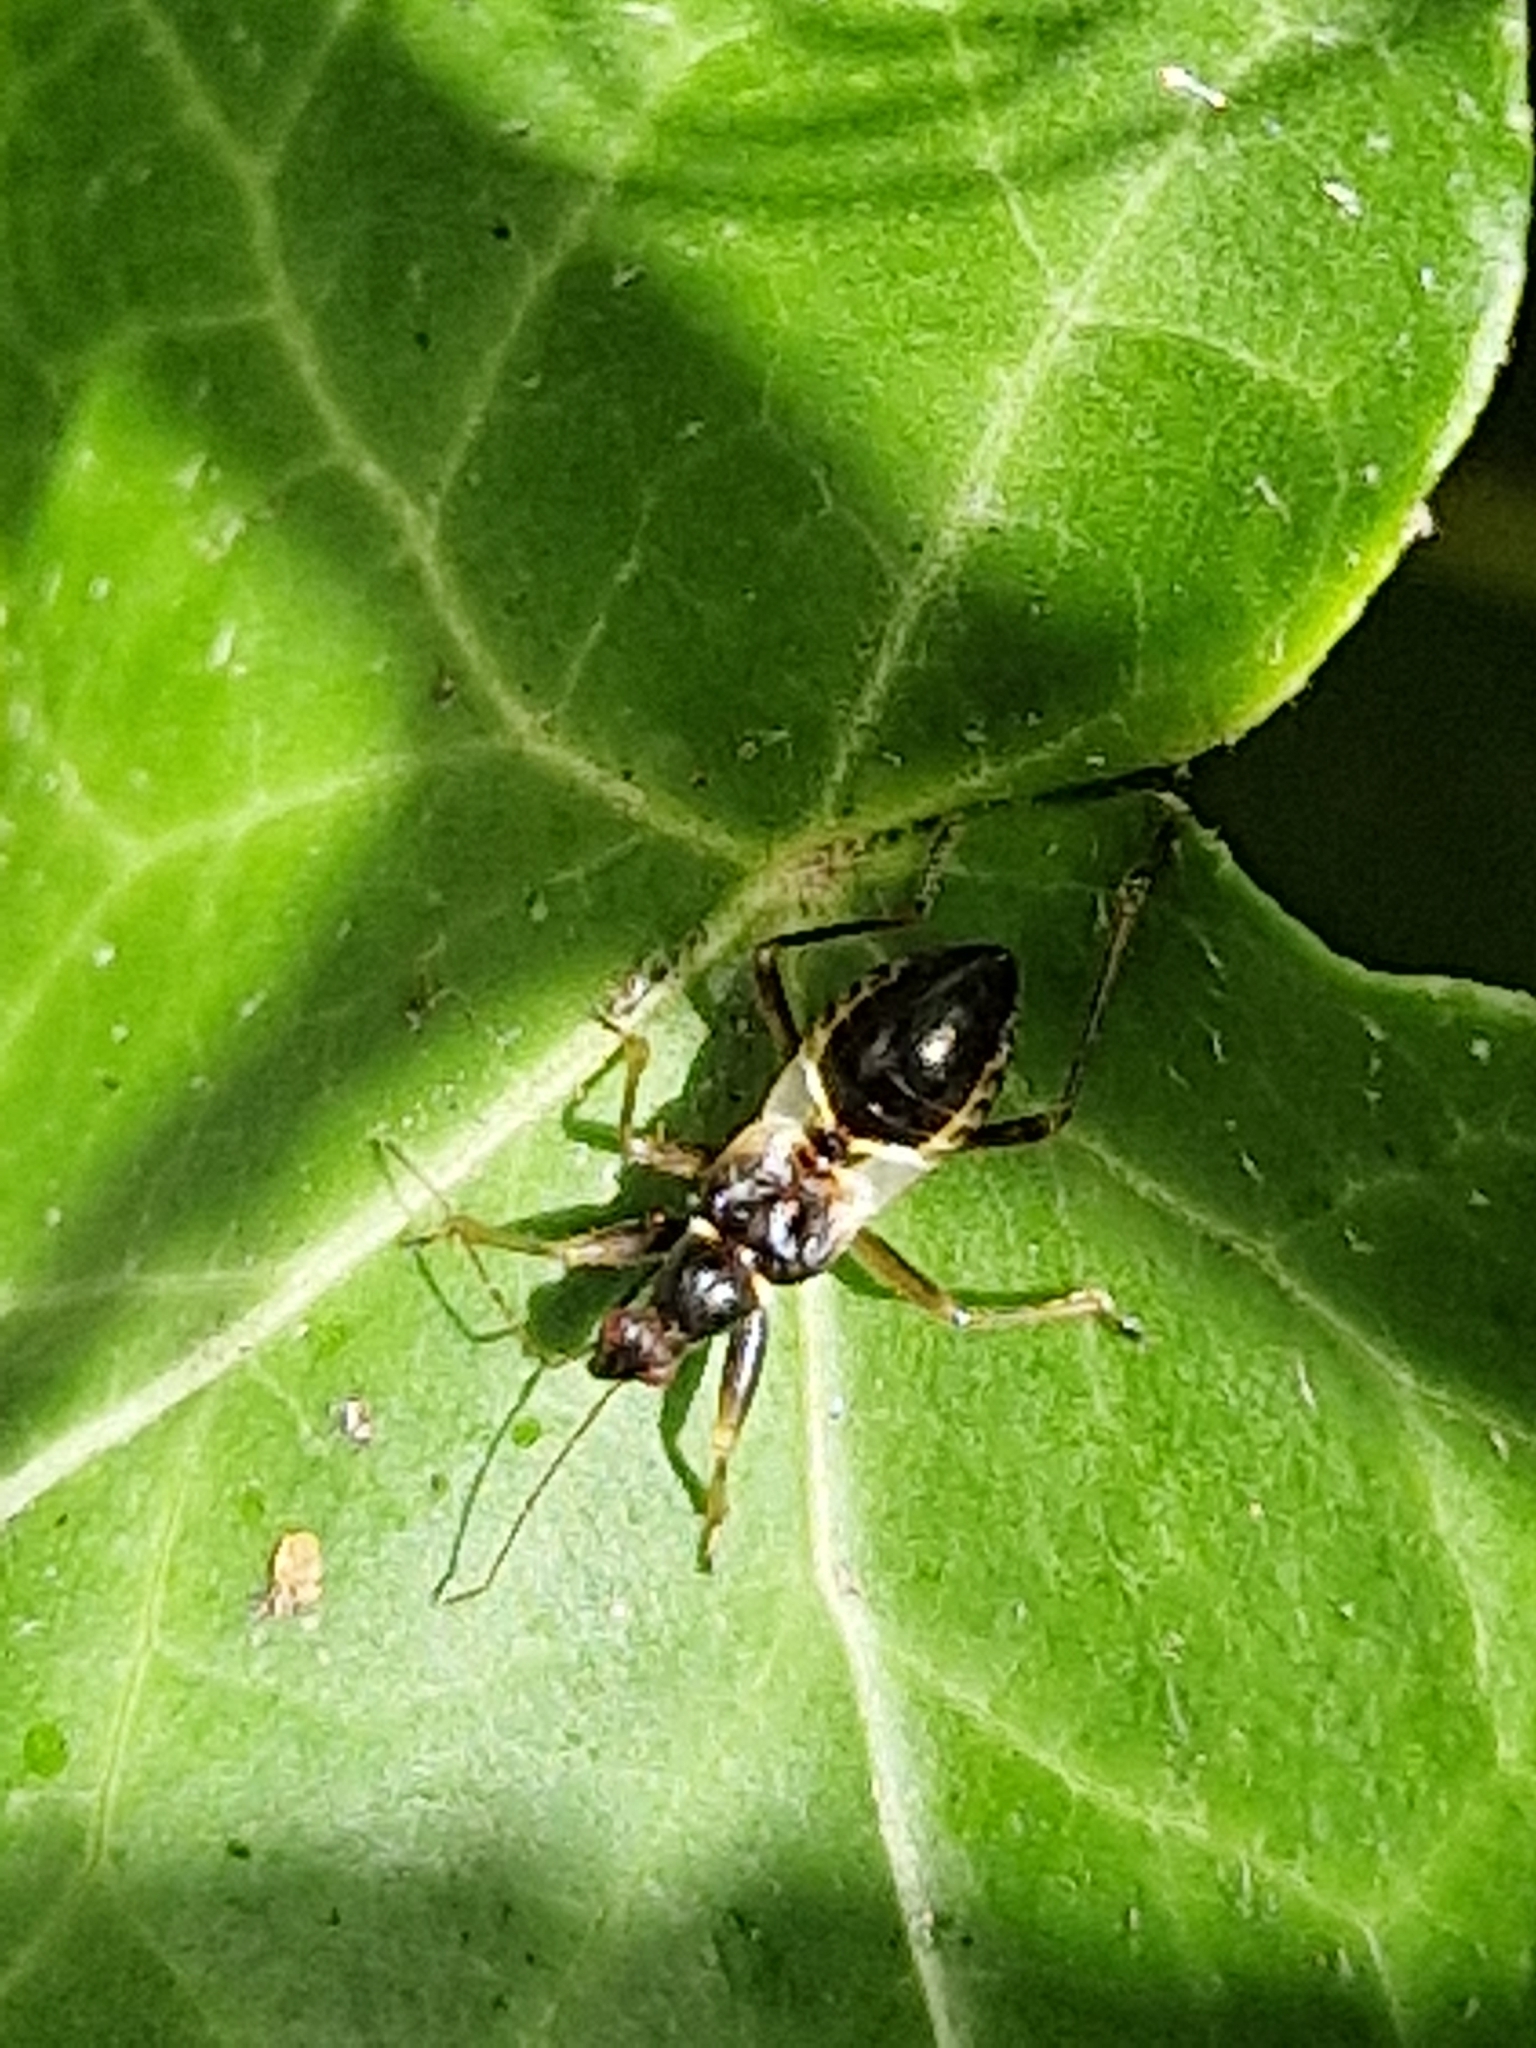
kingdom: Animalia
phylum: Arthropoda
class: Insecta
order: Hemiptera
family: Nabidae
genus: Himacerus
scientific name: Himacerus mirmicoides
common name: Ant damsel bug
